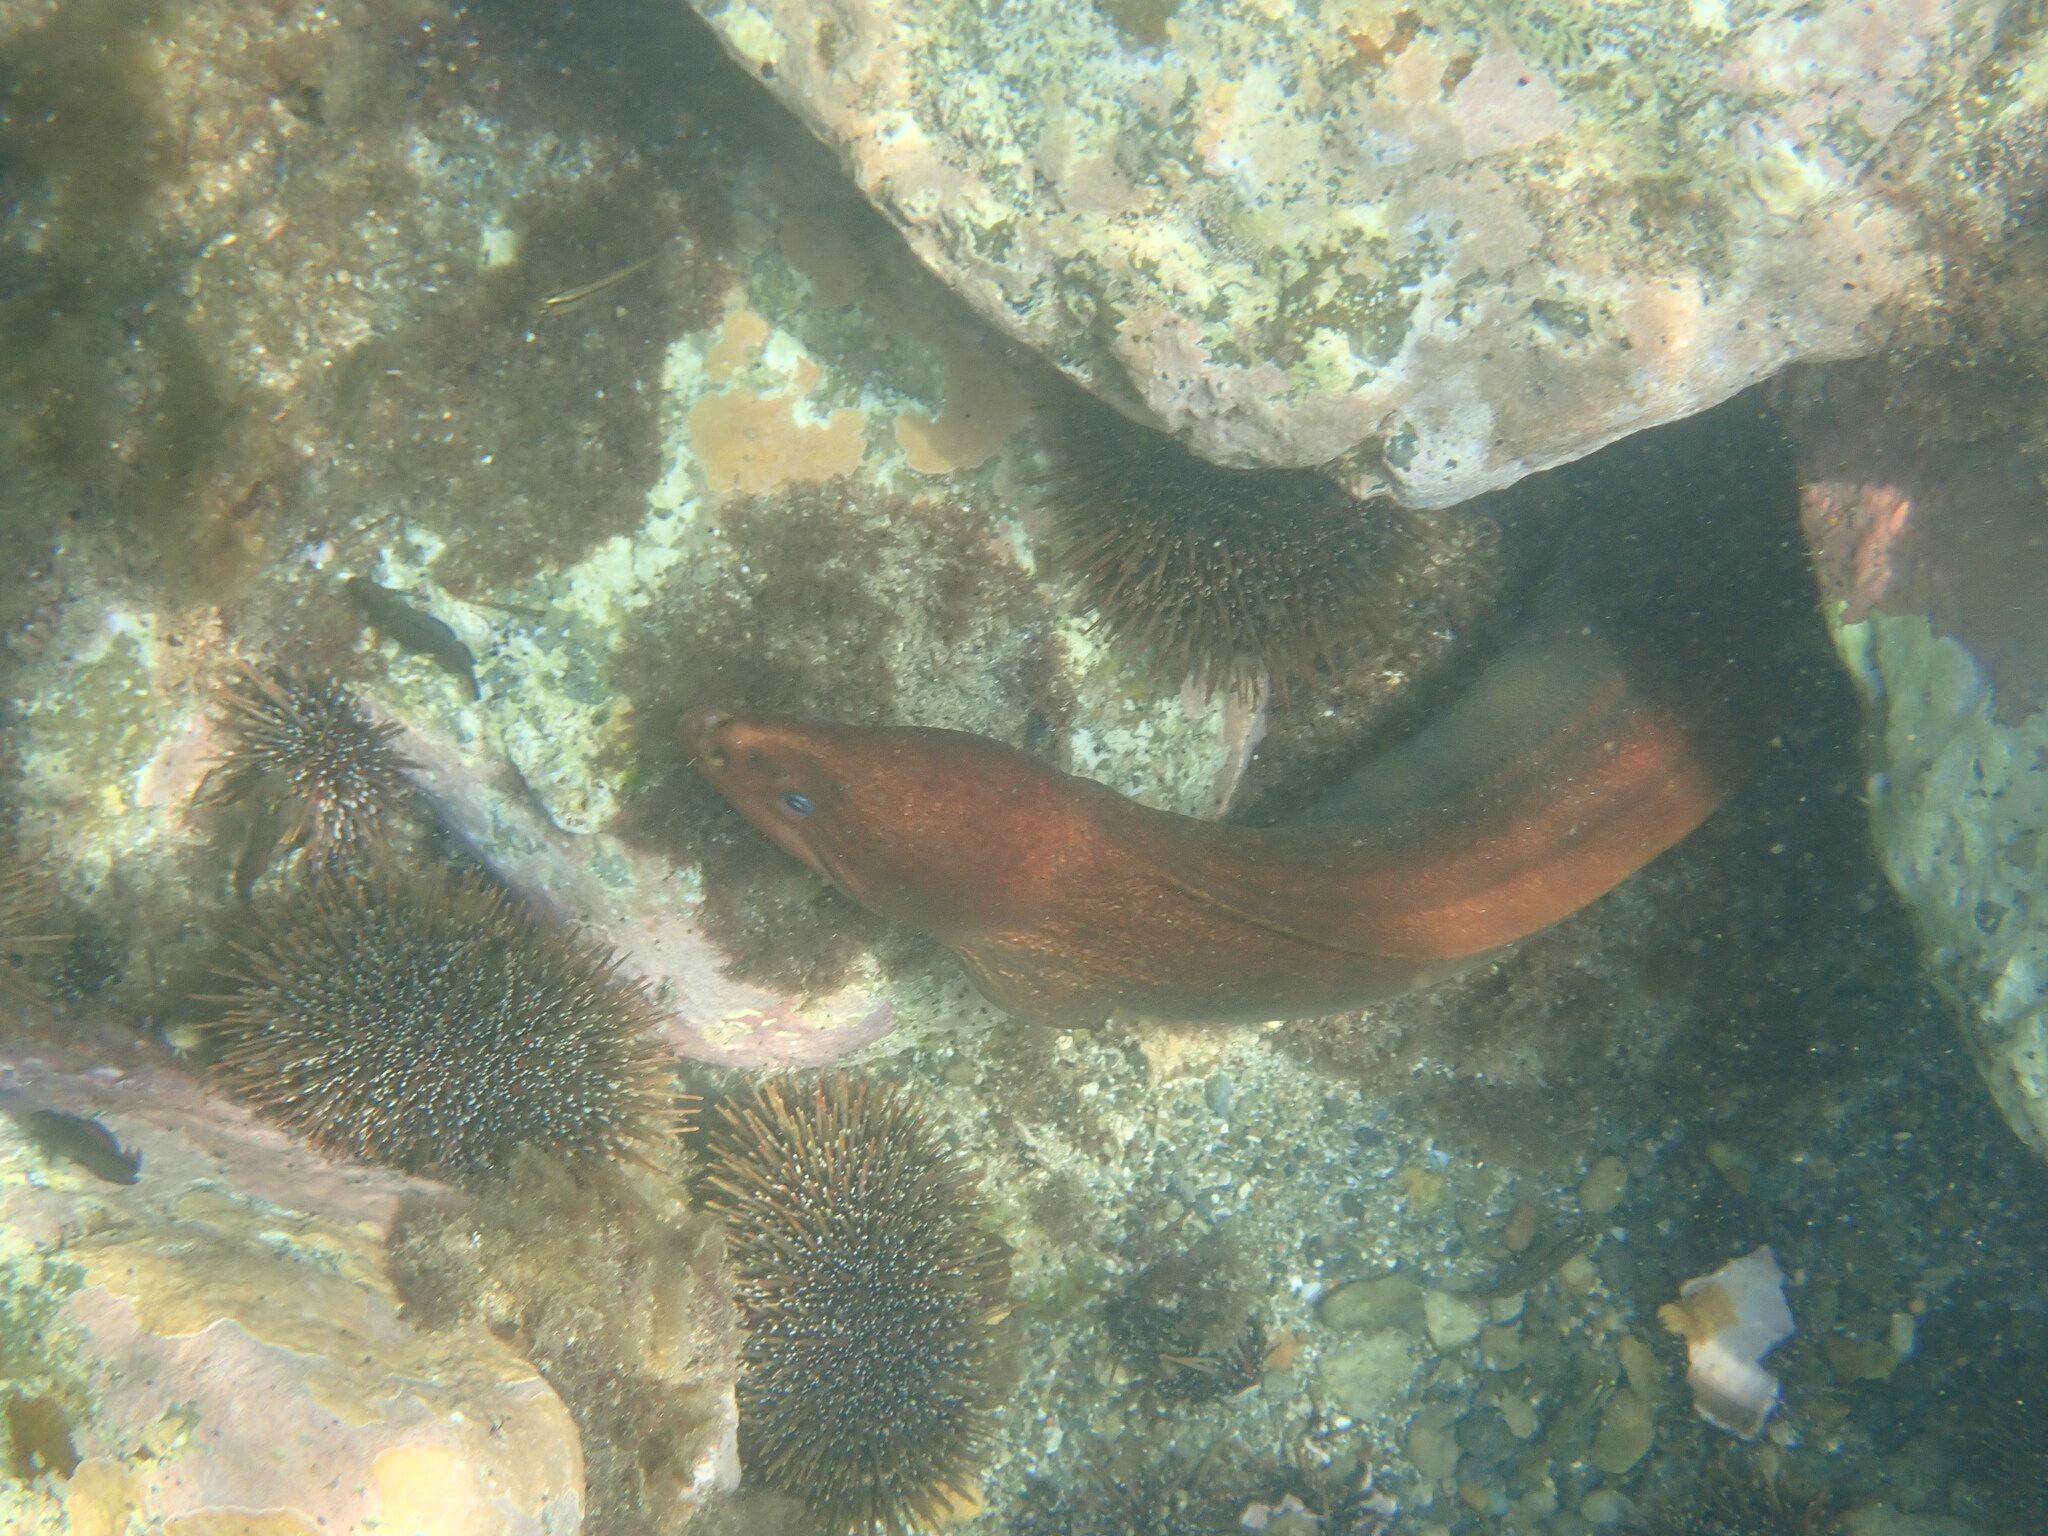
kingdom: Animalia
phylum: Chordata
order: Anguilliformes
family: Muraenidae
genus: Gymnothorax
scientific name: Gymnothorax prasinus
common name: Yellow moray
